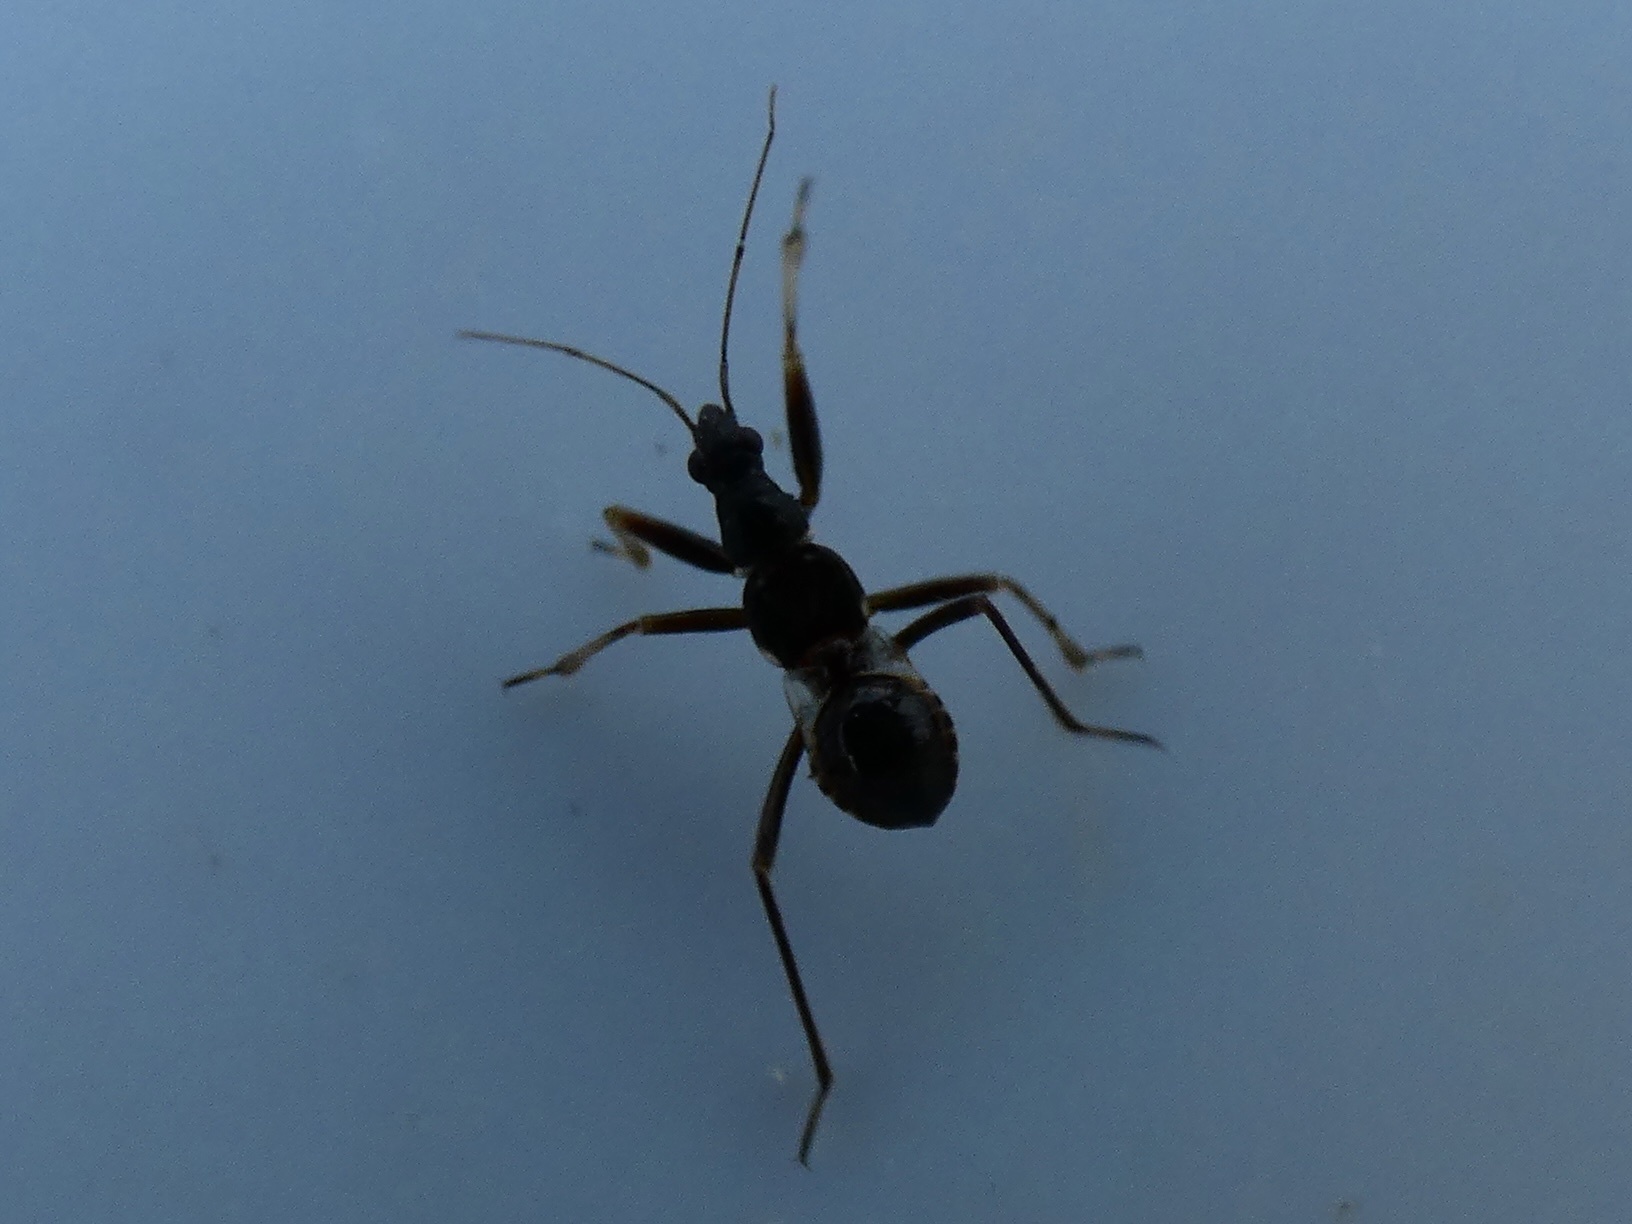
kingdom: Animalia
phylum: Arthropoda
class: Insecta
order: Hemiptera
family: Nabidae
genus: Himacerus
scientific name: Himacerus mirmicoides
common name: Ant damsel bug
